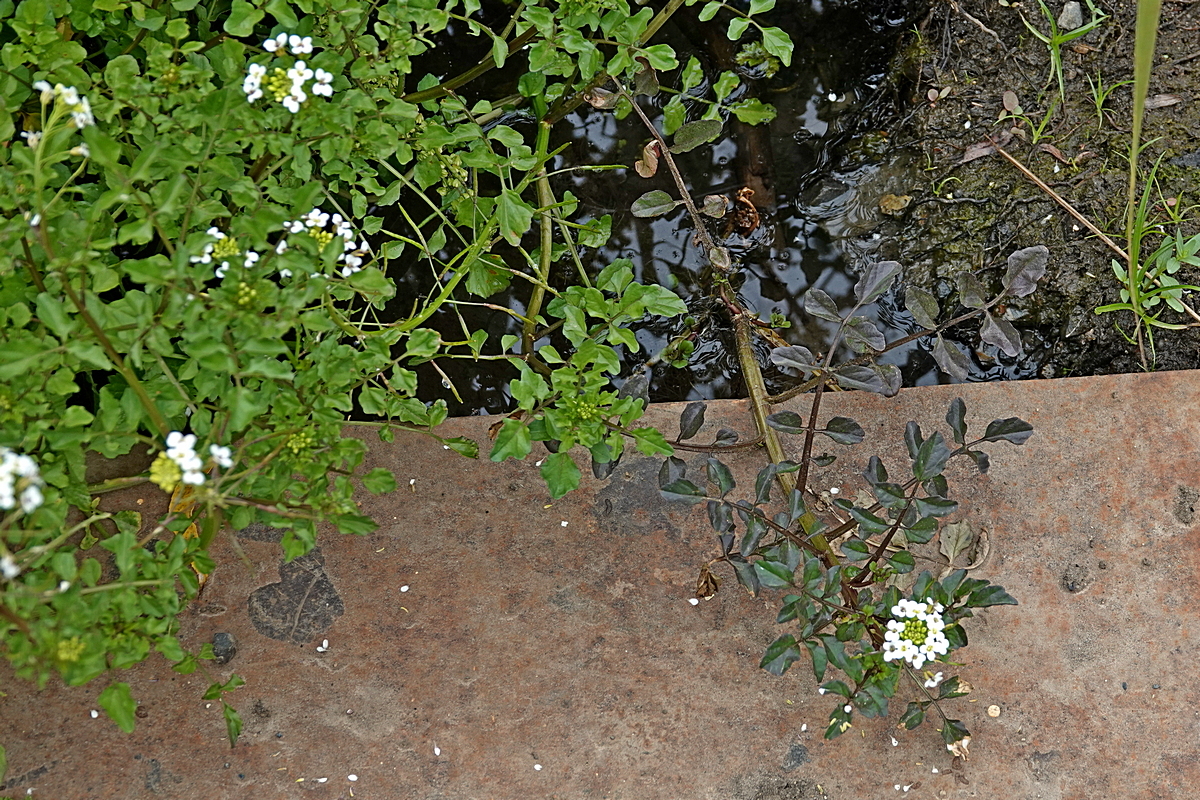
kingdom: Plantae
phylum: Tracheophyta
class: Magnoliopsida
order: Brassicales
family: Brassicaceae
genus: Nasturtium
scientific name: Nasturtium officinale
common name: Watercress
